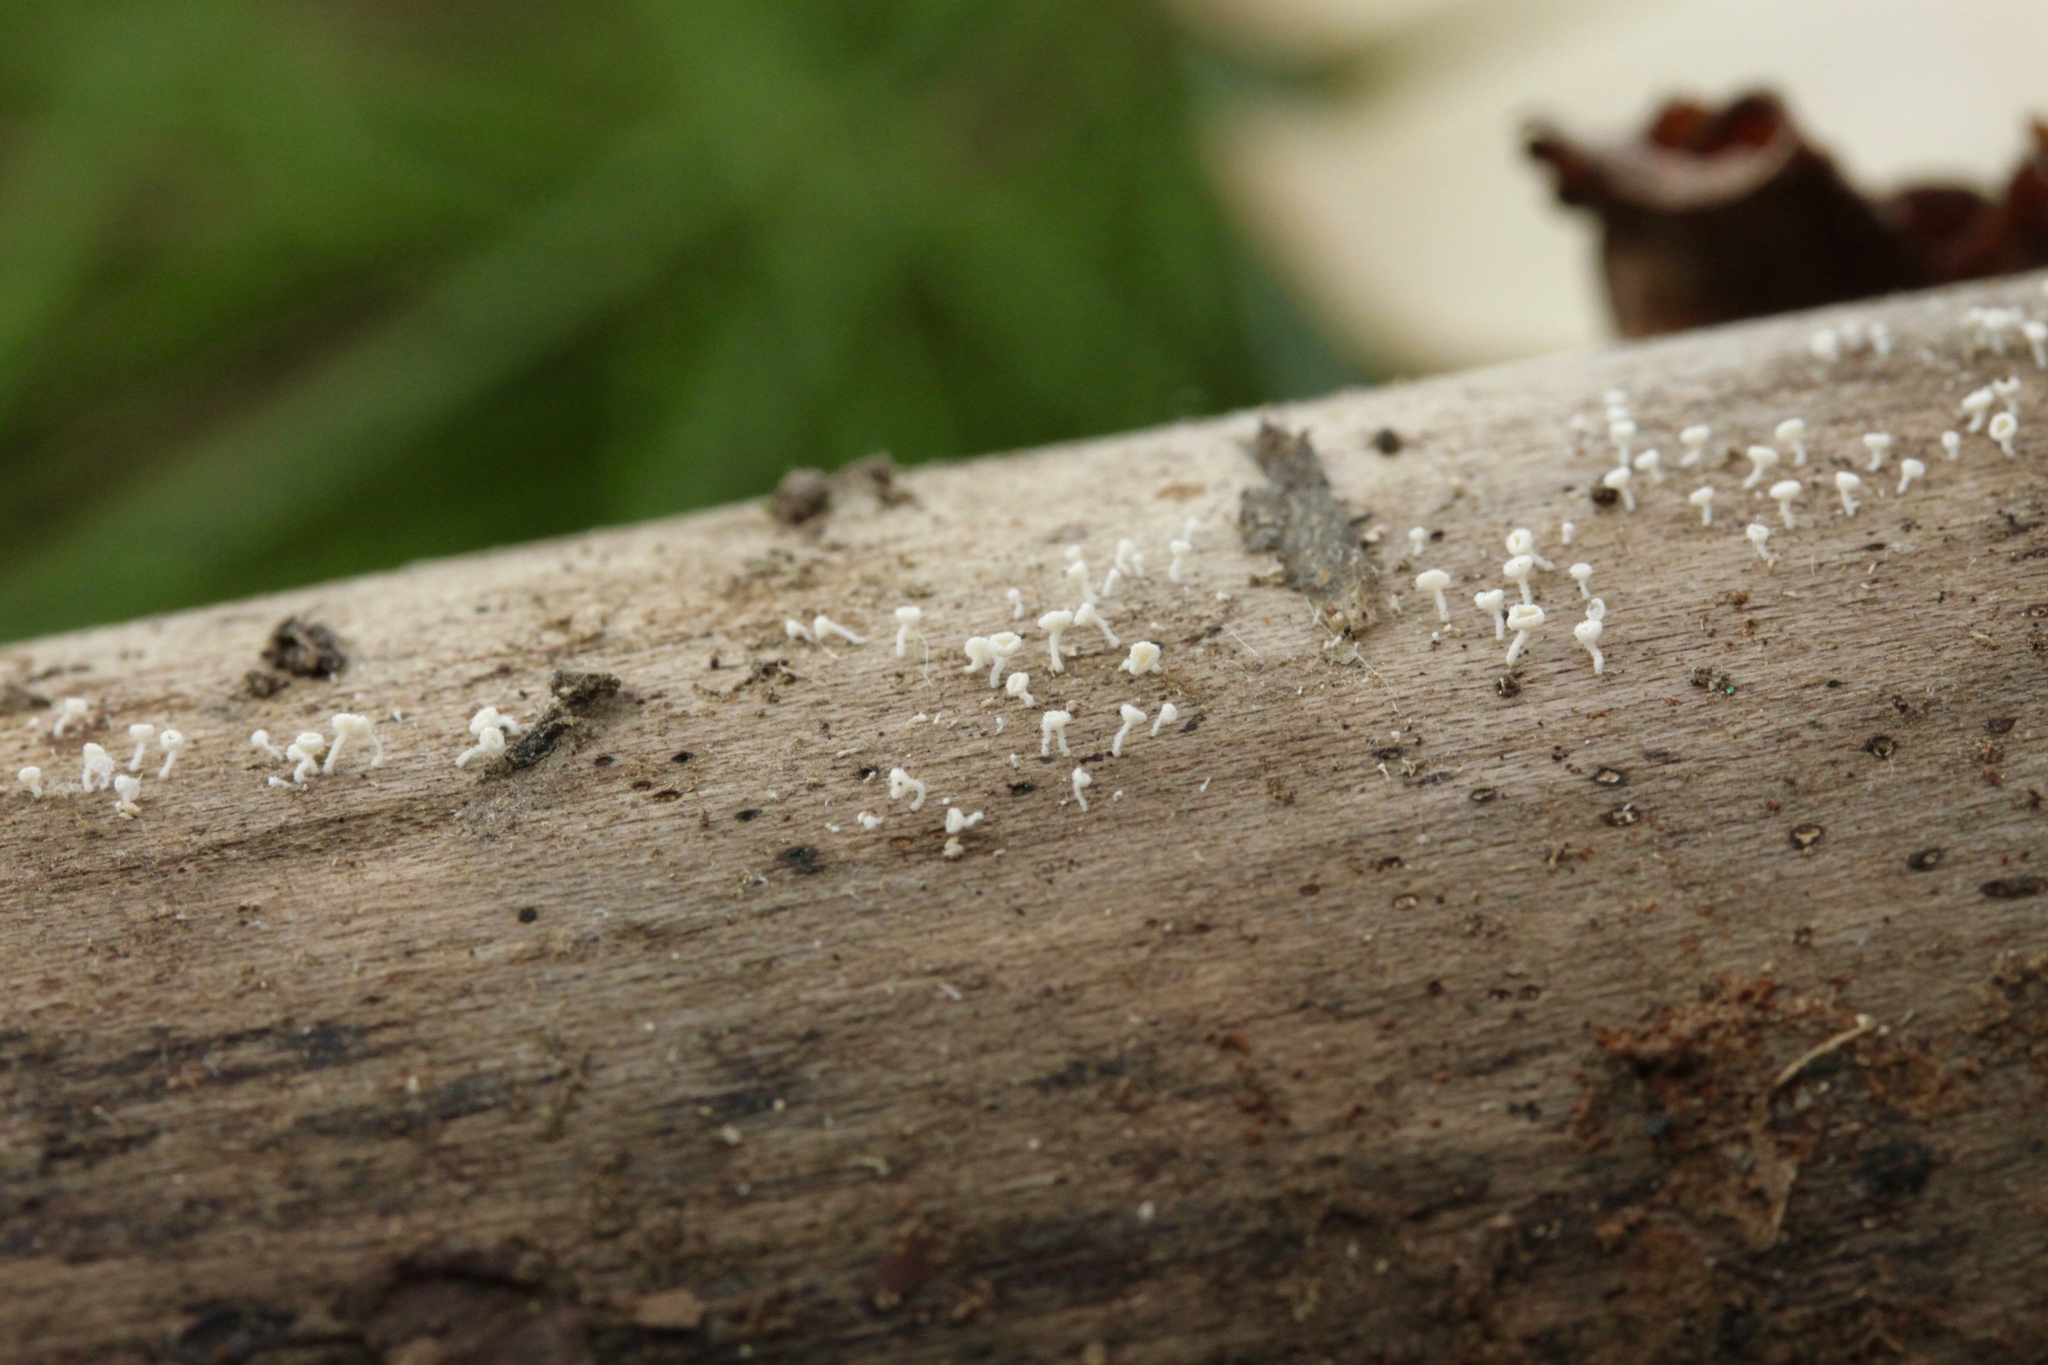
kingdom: Fungi
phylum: Ascomycota
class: Leotiomycetes
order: Helotiales
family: Lachnaceae
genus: Lachnum
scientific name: Lachnum virgineum
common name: Snowy disco
